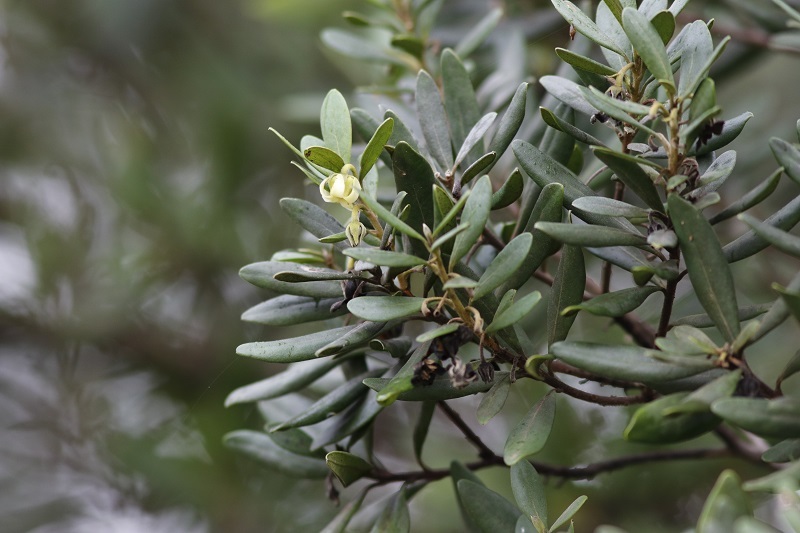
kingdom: Plantae
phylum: Tracheophyta
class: Magnoliopsida
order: Ericales
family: Ebenaceae
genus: Diospyros
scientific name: Diospyros dichrophylla
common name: Common star-apple
